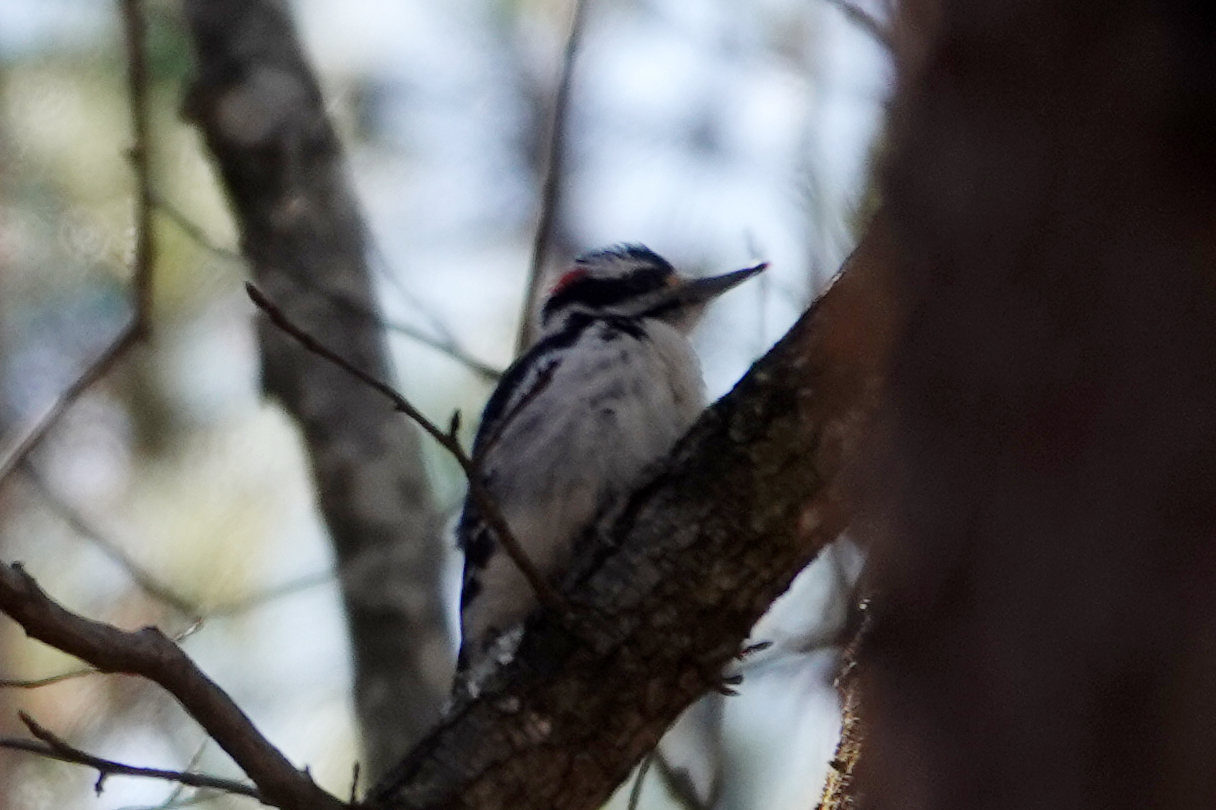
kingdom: Animalia
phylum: Chordata
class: Aves
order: Piciformes
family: Picidae
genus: Leuconotopicus
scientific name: Leuconotopicus villosus
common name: Hairy woodpecker
